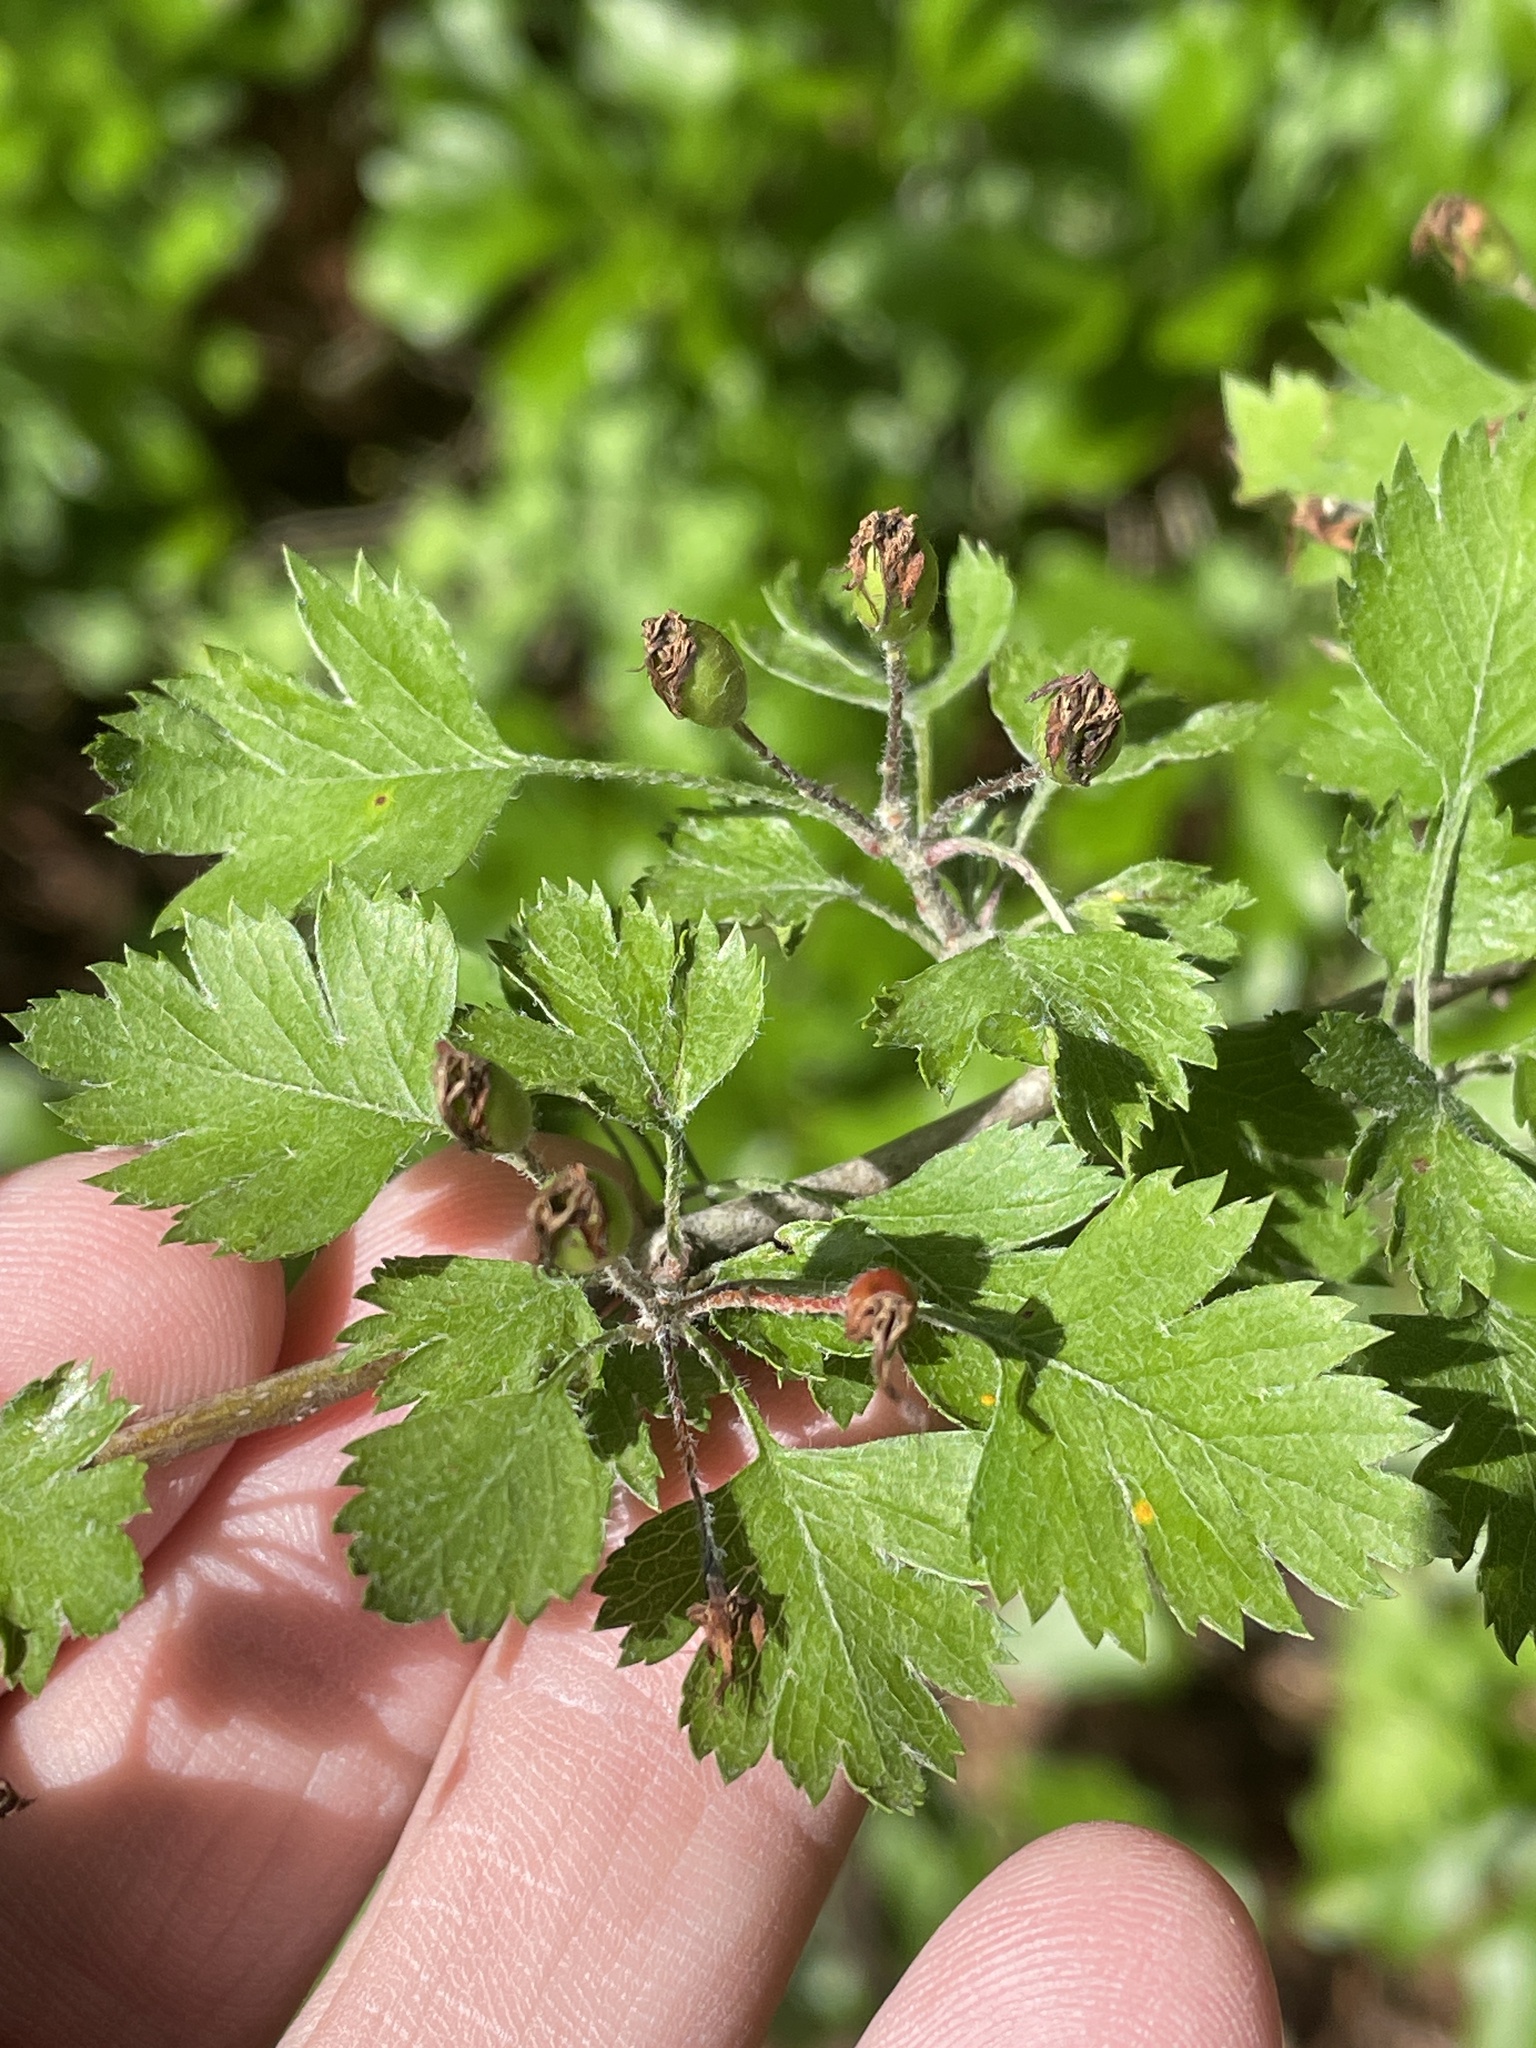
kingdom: Plantae
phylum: Tracheophyta
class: Magnoliopsida
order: Rosales
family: Rosaceae
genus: Crataegus
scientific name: Crataegus marshallii
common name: Parsley-hawthorn
